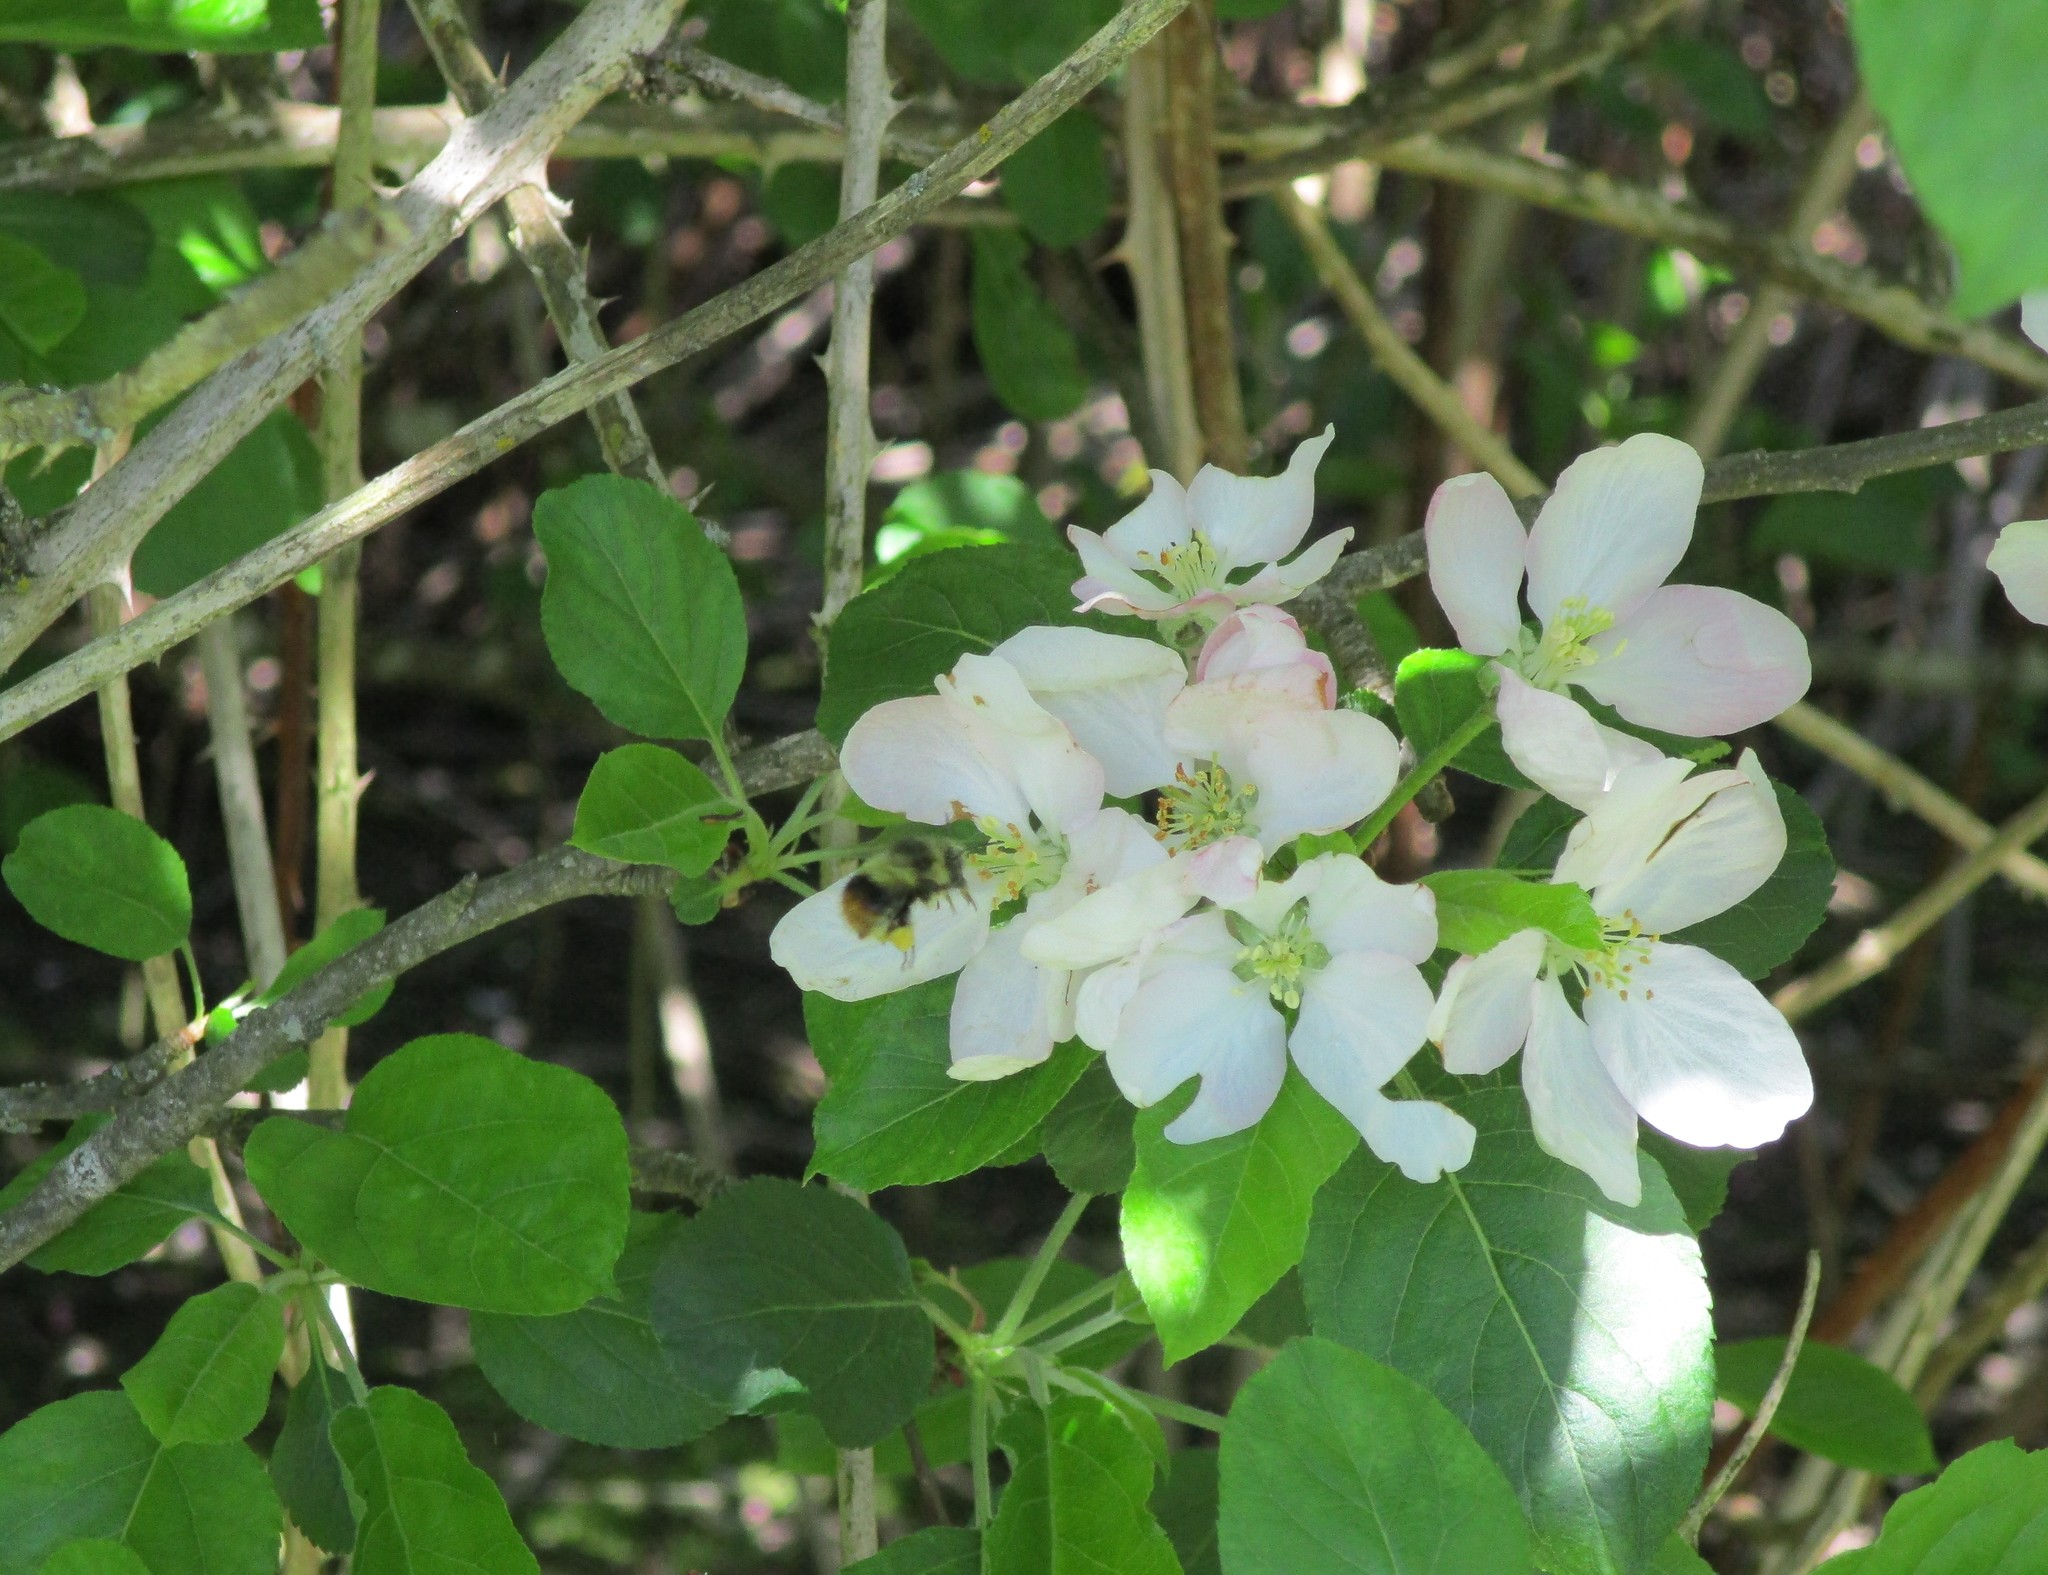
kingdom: Animalia
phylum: Arthropoda
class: Insecta
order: Hymenoptera
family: Apidae
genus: Bombus
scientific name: Bombus mixtus
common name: Fuzzy-horned bumble bee
